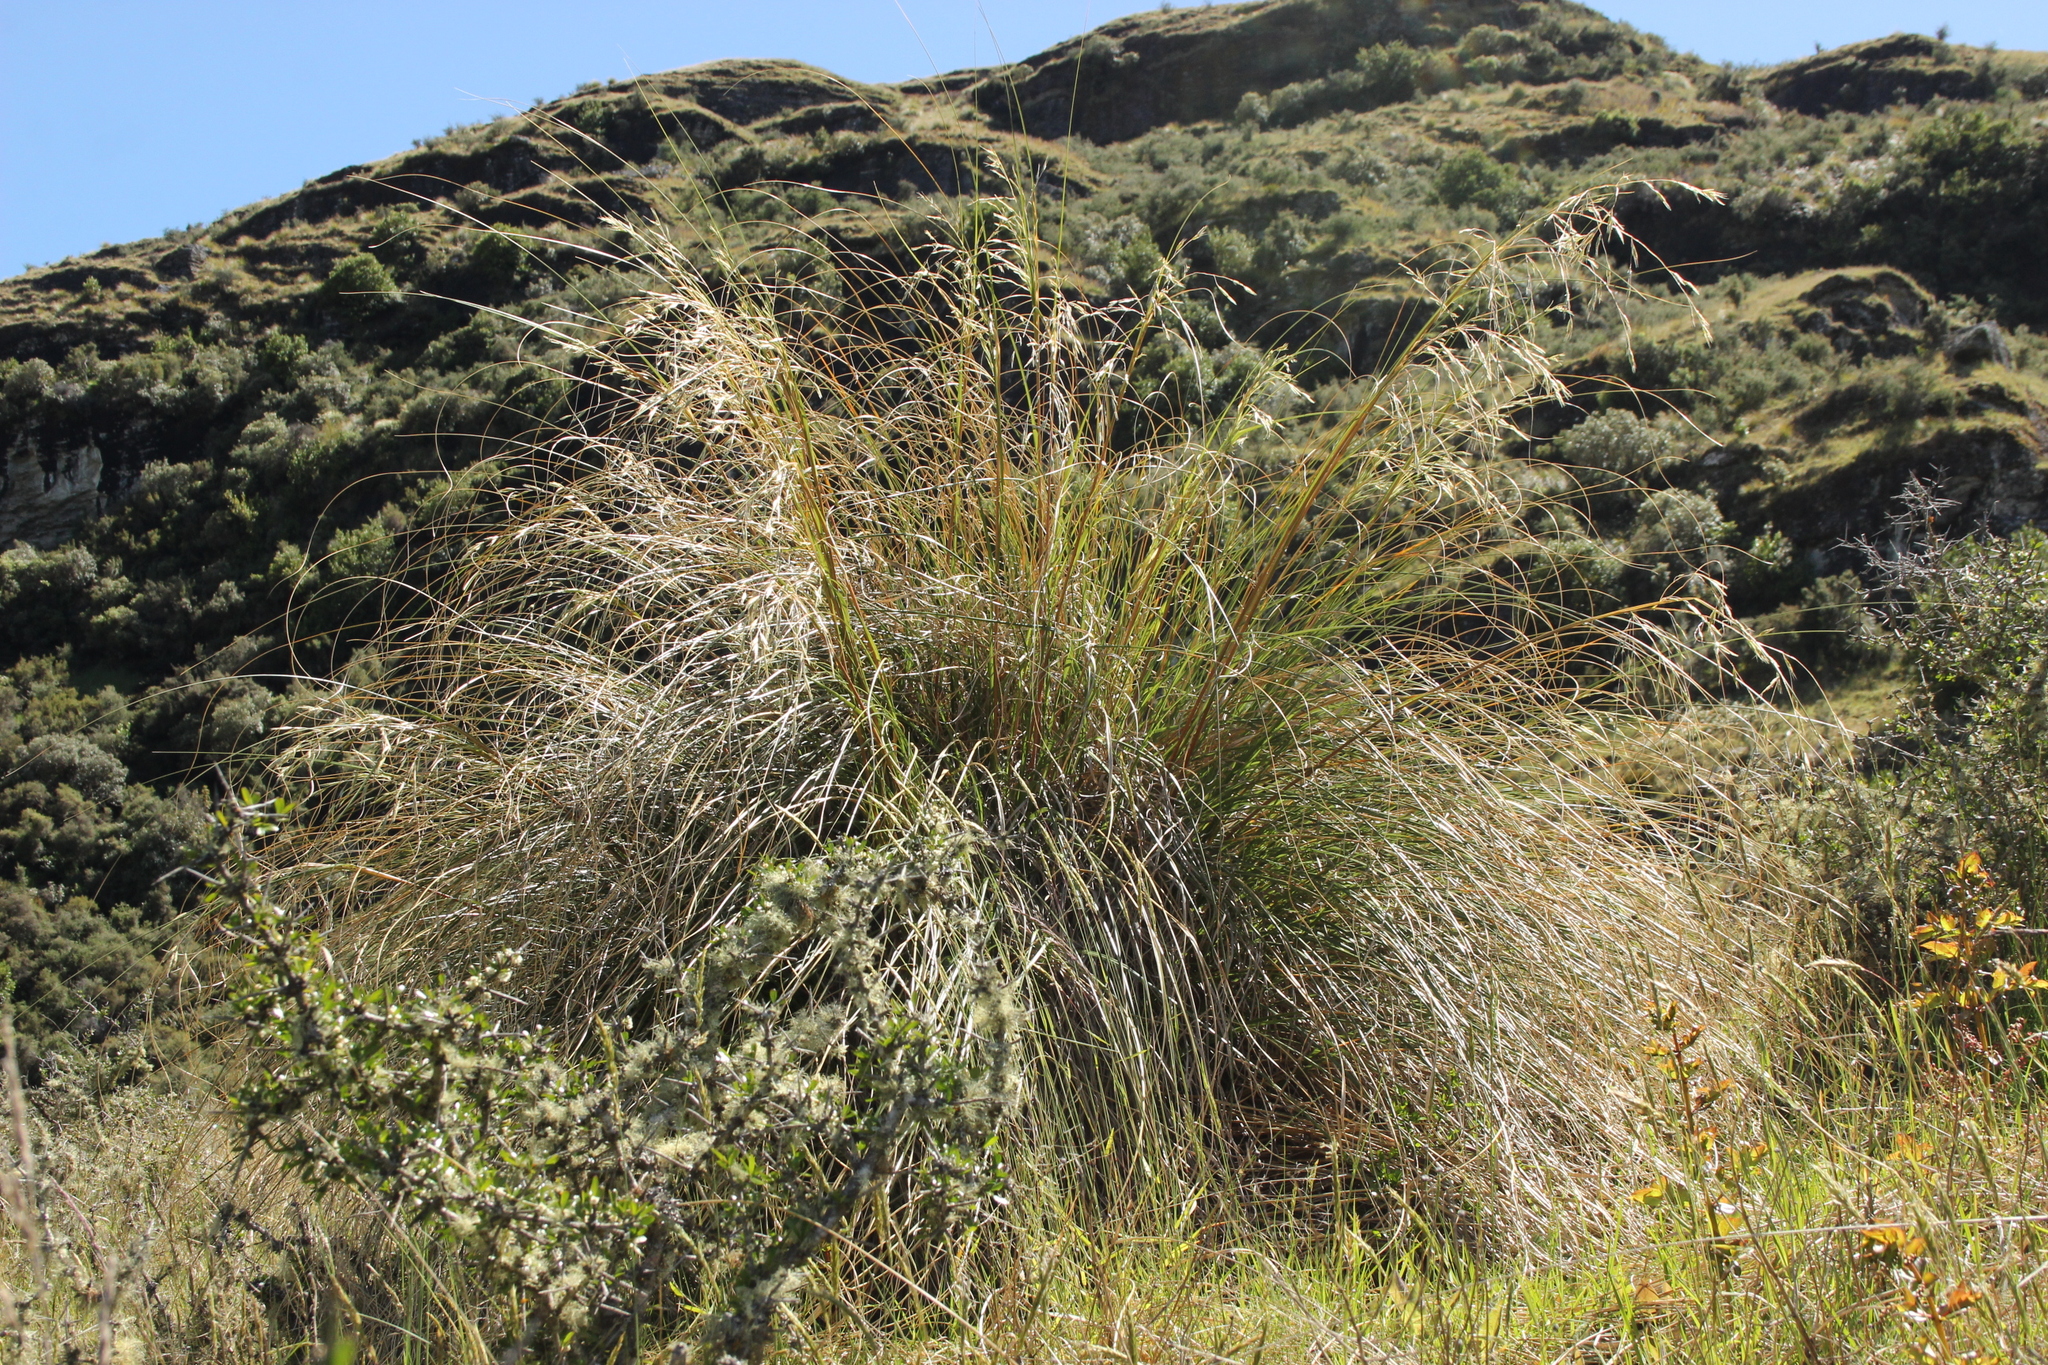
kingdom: Plantae
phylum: Tracheophyta
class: Liliopsida
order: Poales
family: Poaceae
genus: Chionochloa
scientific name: Chionochloa rigida
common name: Narrow leaved snow tussock
